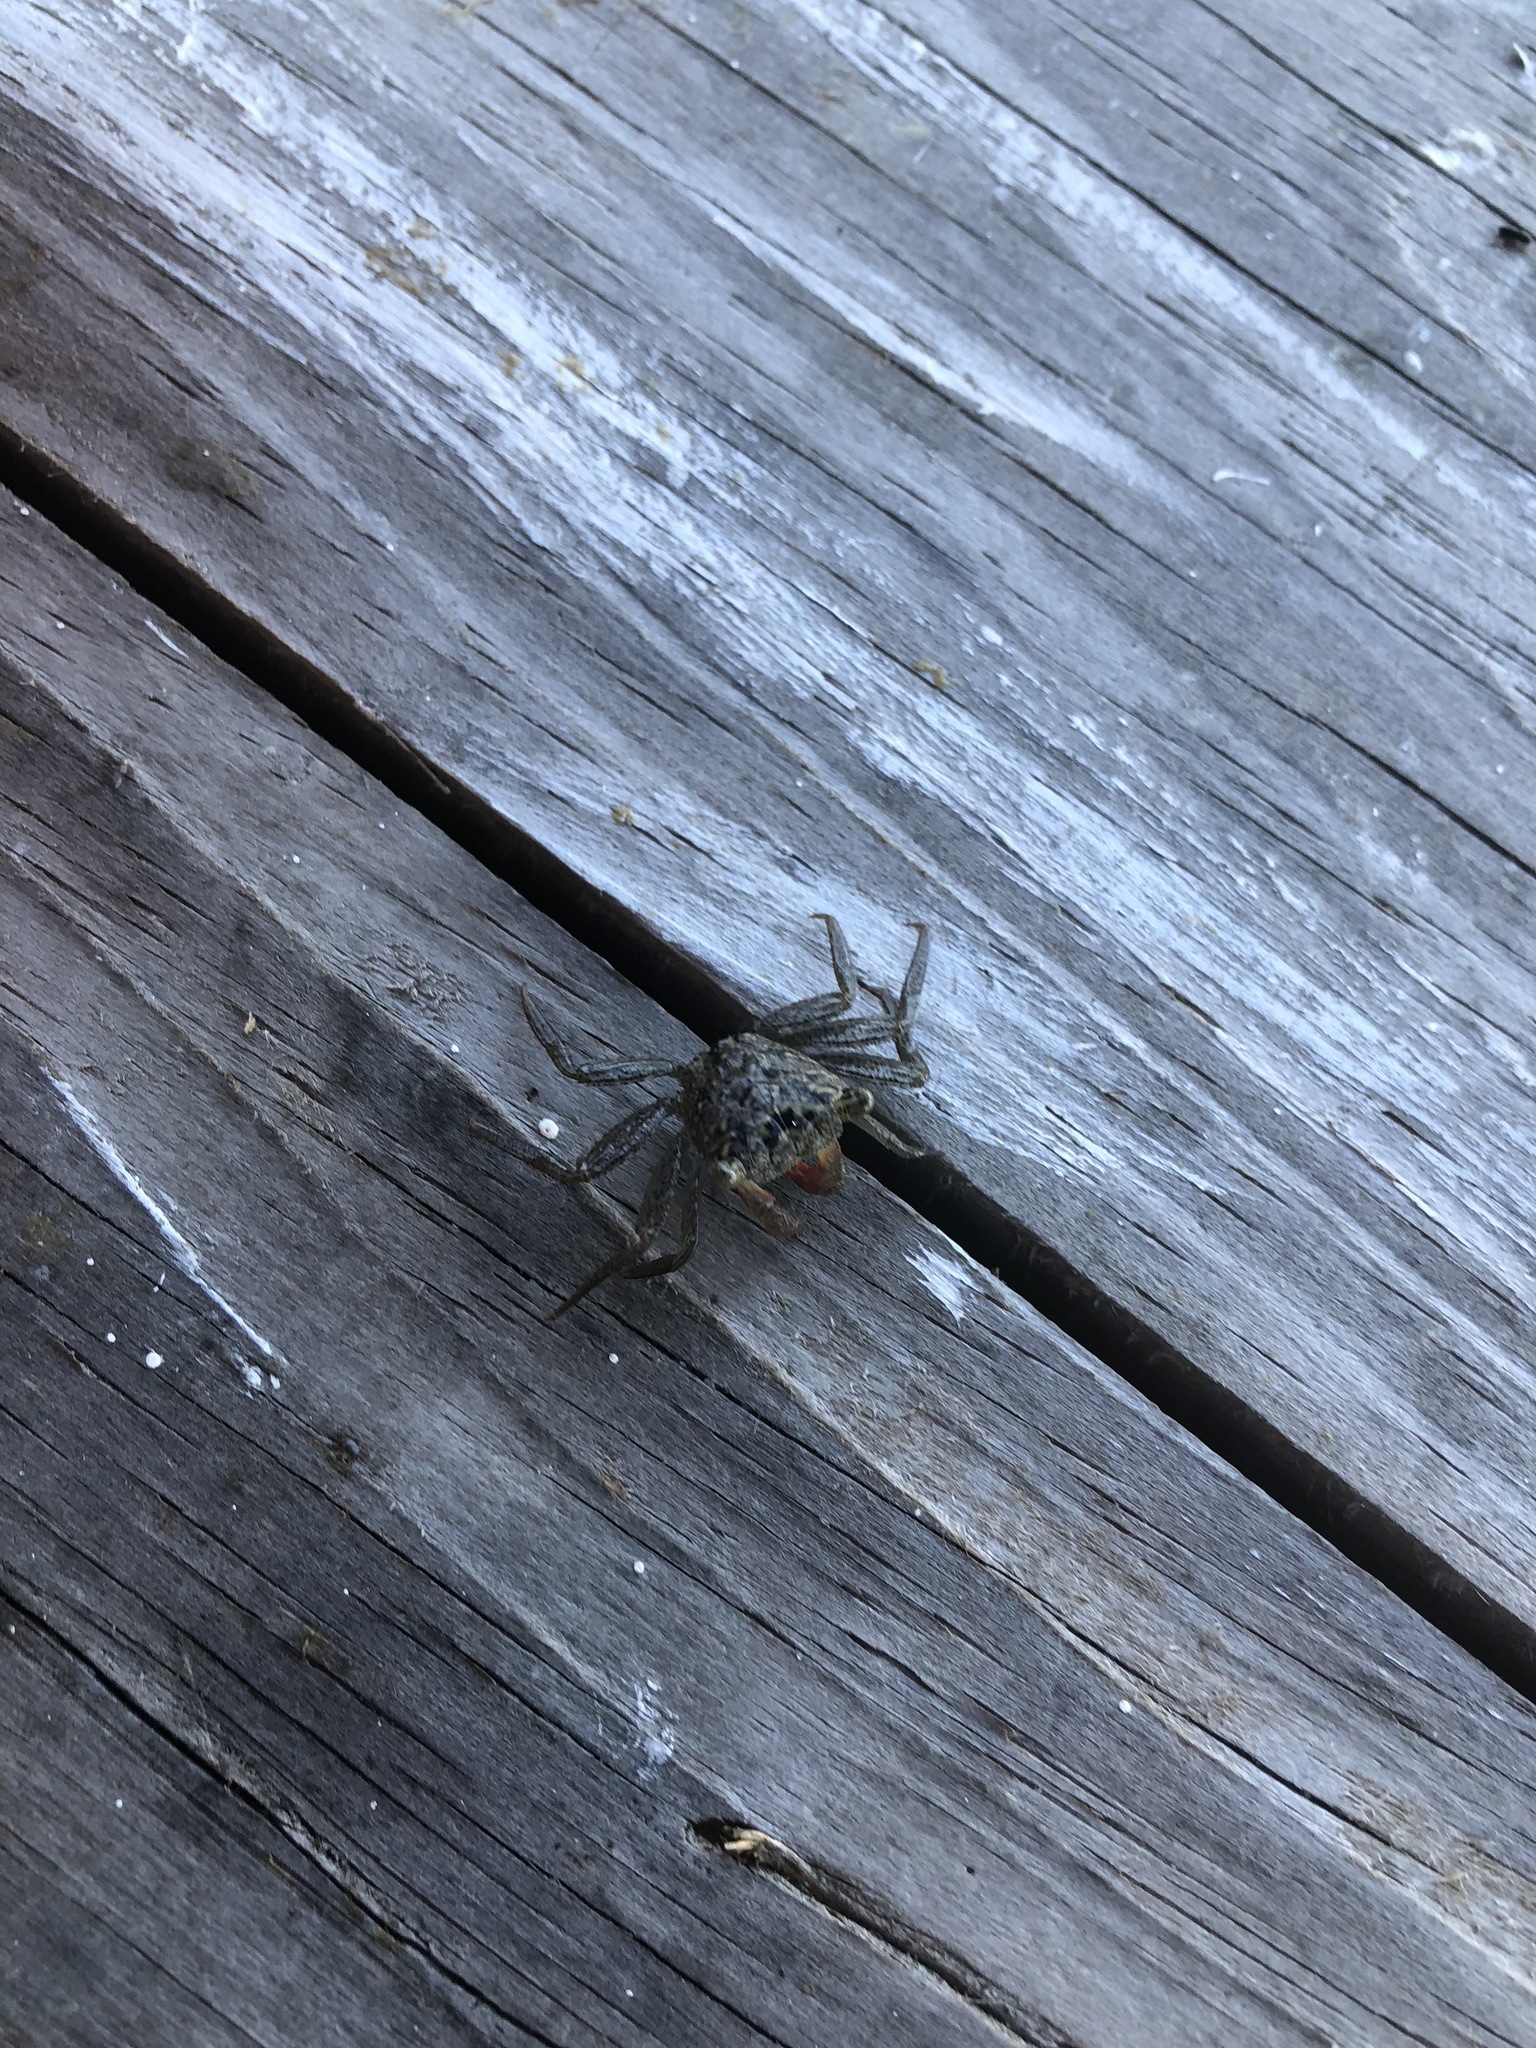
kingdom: Animalia
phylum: Arthropoda
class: Malacostraca
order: Decapoda
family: Sesarmidae
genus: Aratus
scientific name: Aratus pisonii
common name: Mangrove crab
